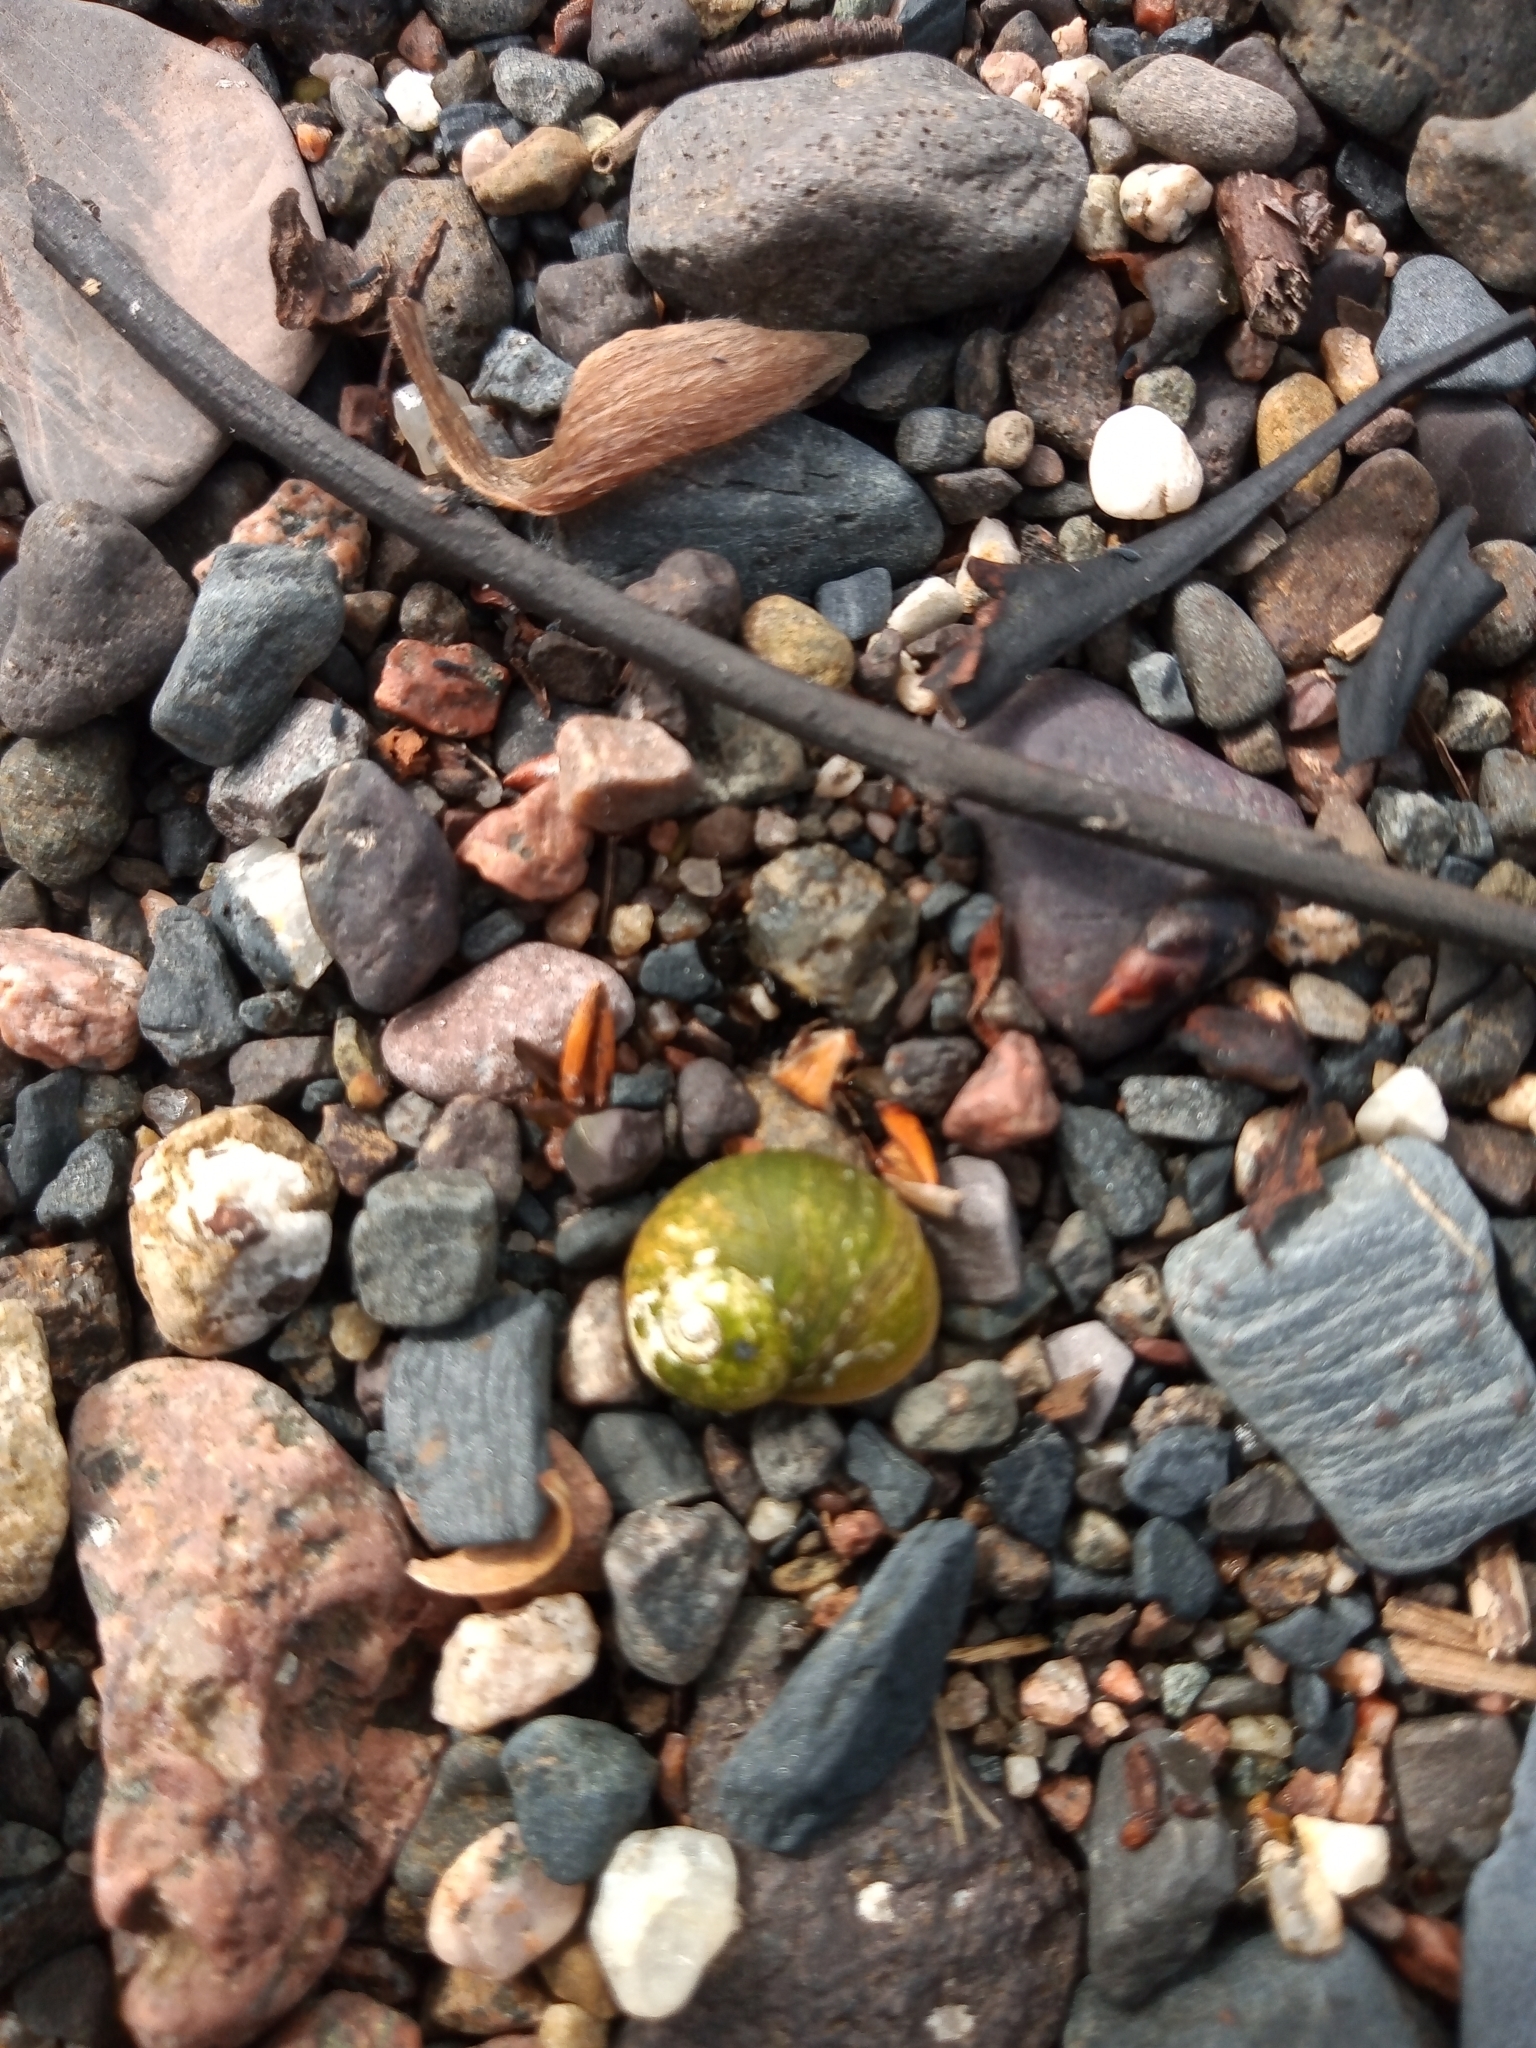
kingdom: Animalia
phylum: Mollusca
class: Gastropoda
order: Littorinimorpha
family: Littorinidae
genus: Littorina
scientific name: Littorina
